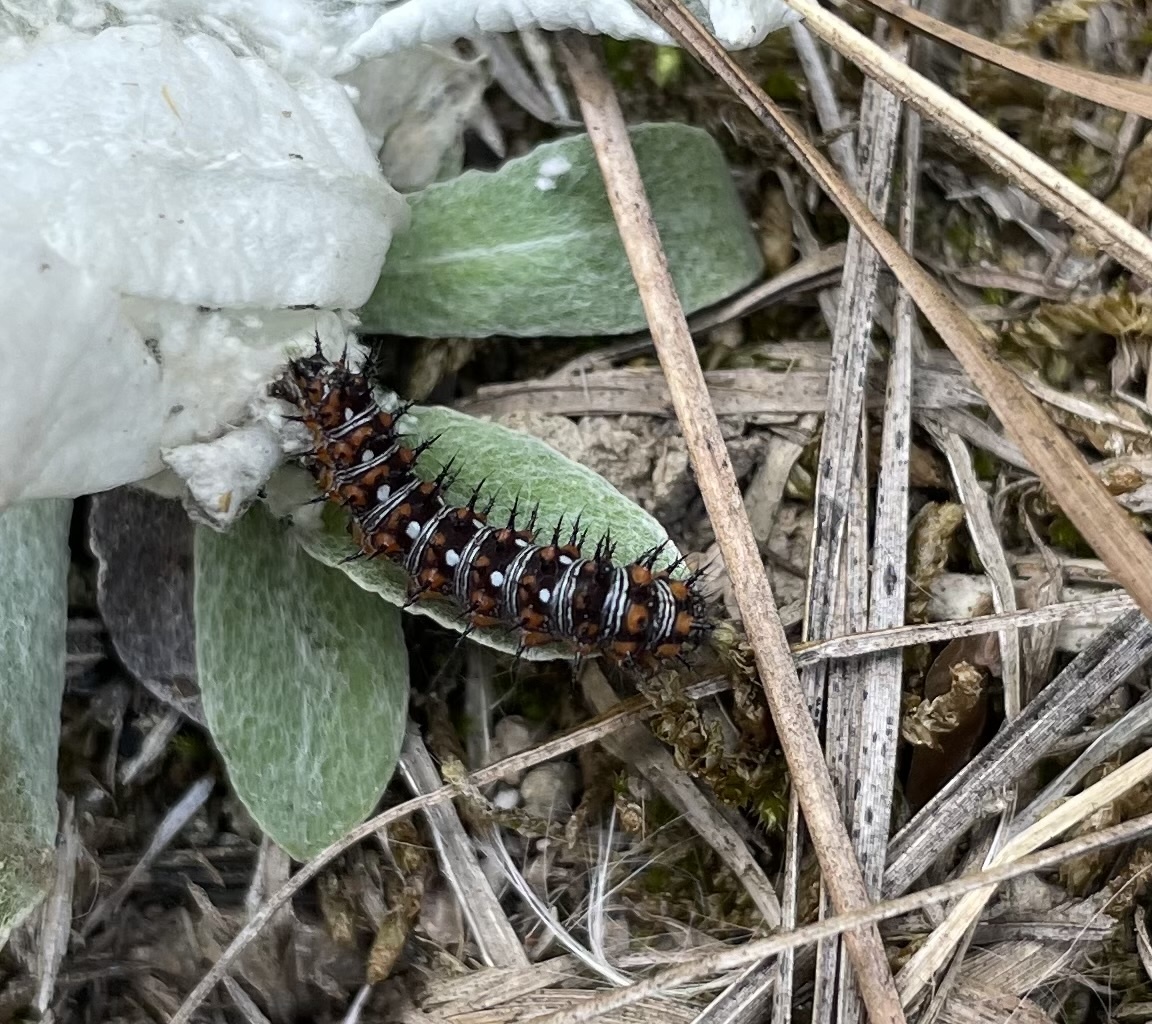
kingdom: Animalia
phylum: Arthropoda
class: Insecta
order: Lepidoptera
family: Nymphalidae
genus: Vanessa
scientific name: Vanessa virginiensis
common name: American lady
